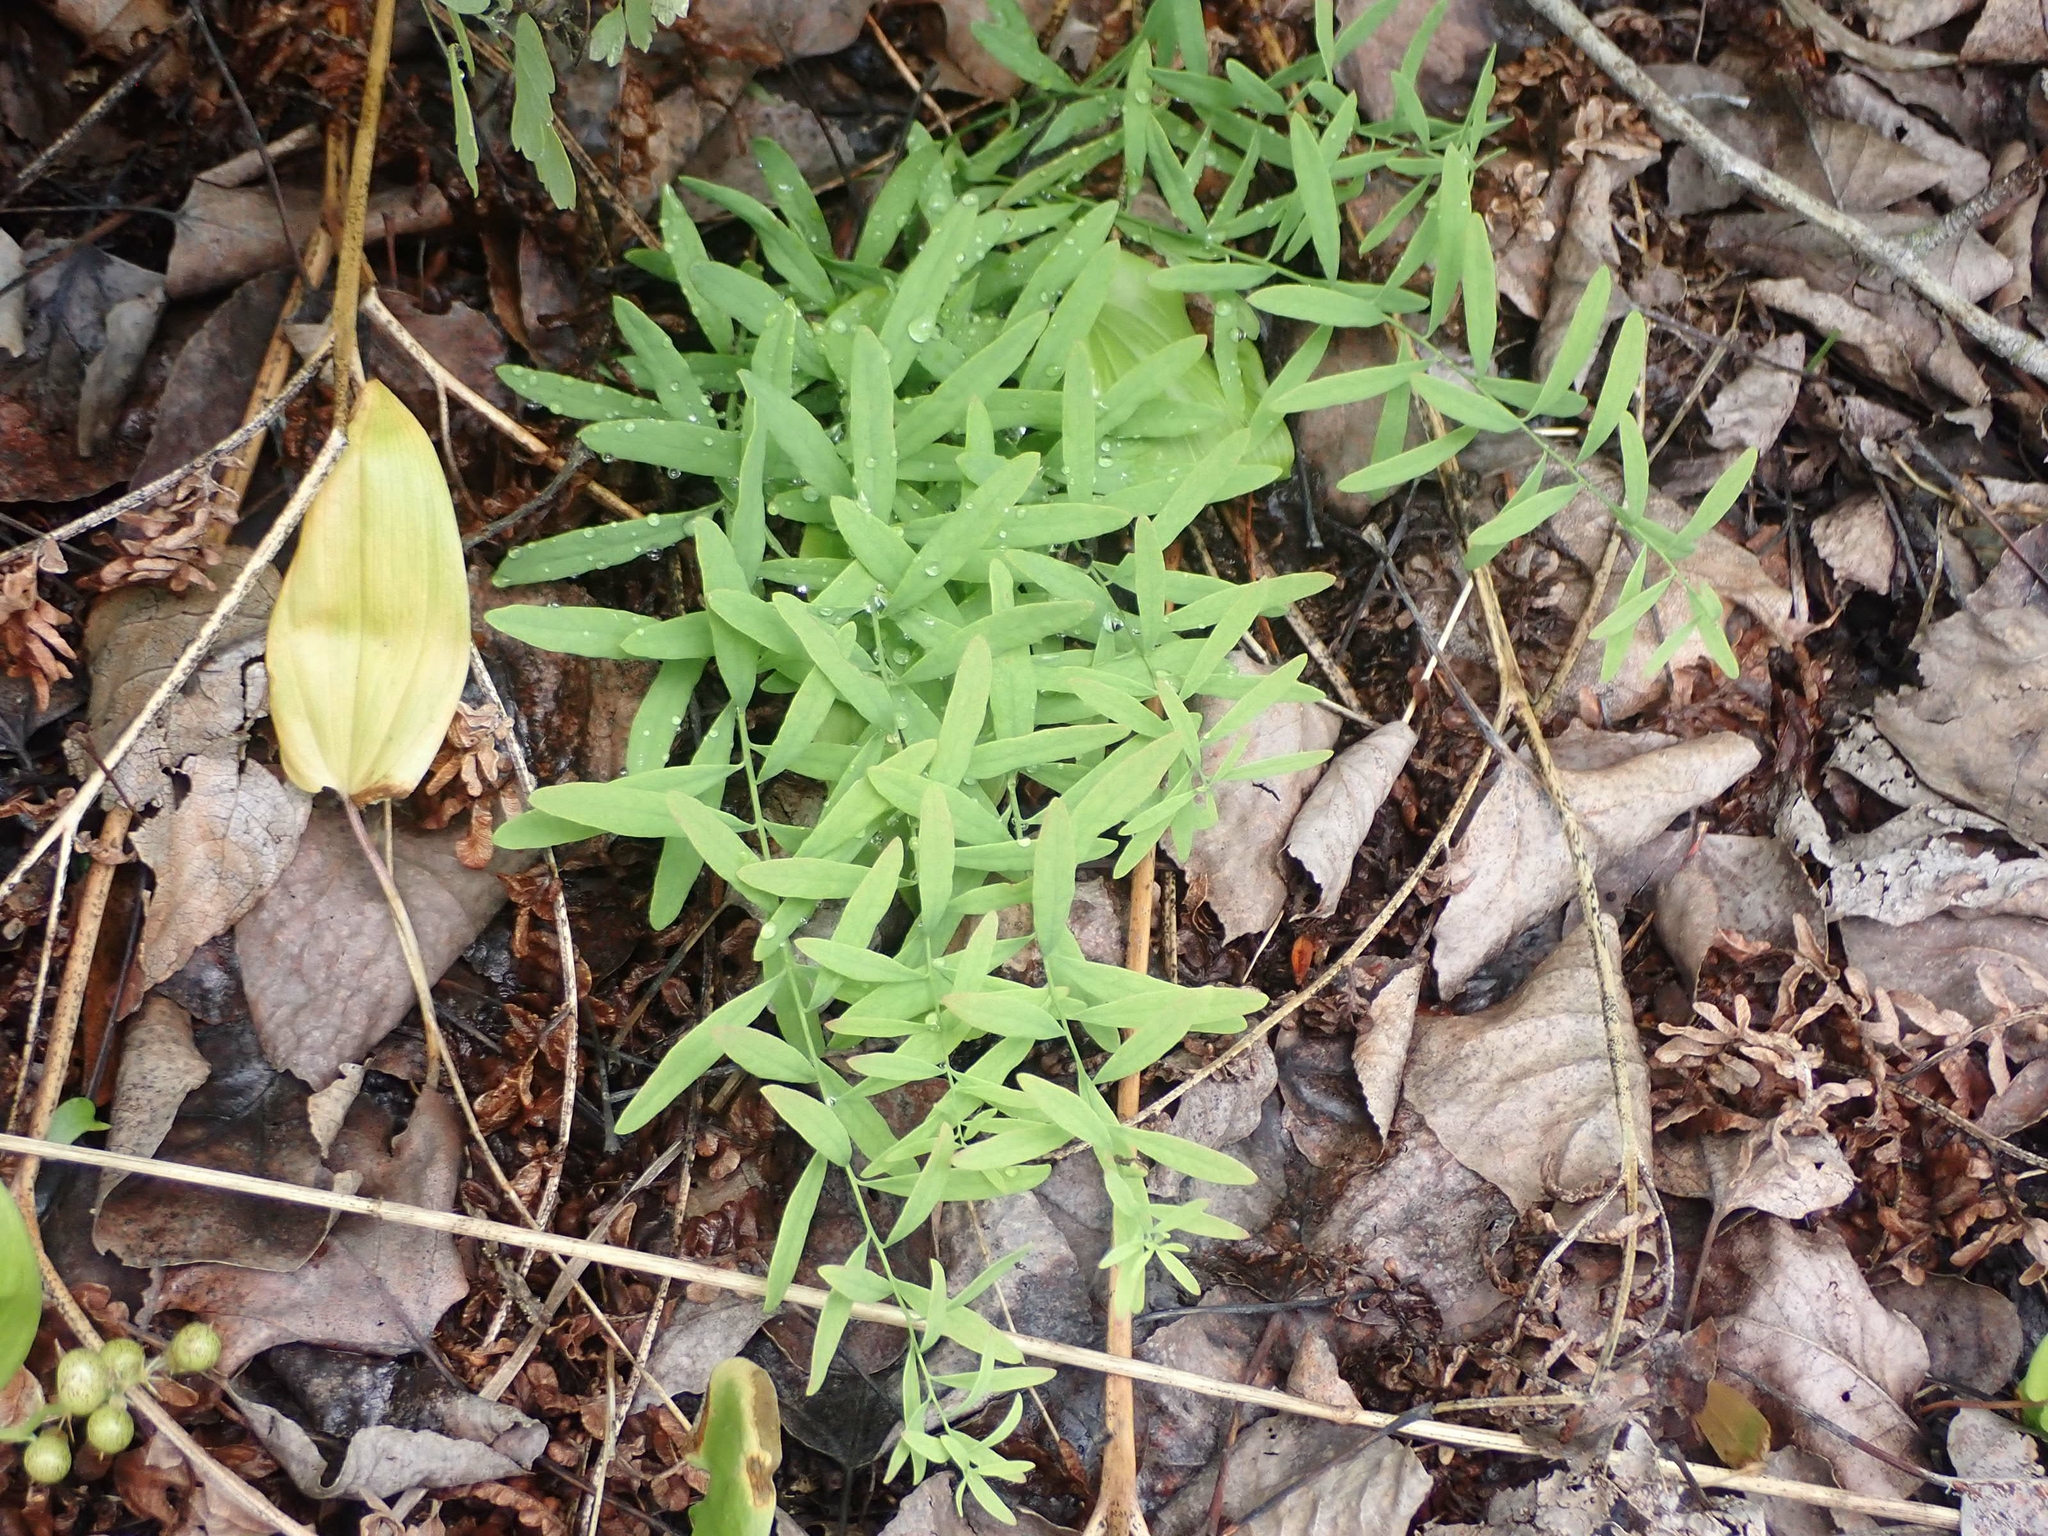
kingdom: Plantae
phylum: Tracheophyta
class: Magnoliopsida
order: Santalales
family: Comandraceae
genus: Comandra
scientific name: Comandra umbellata
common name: Bastard toadflax
